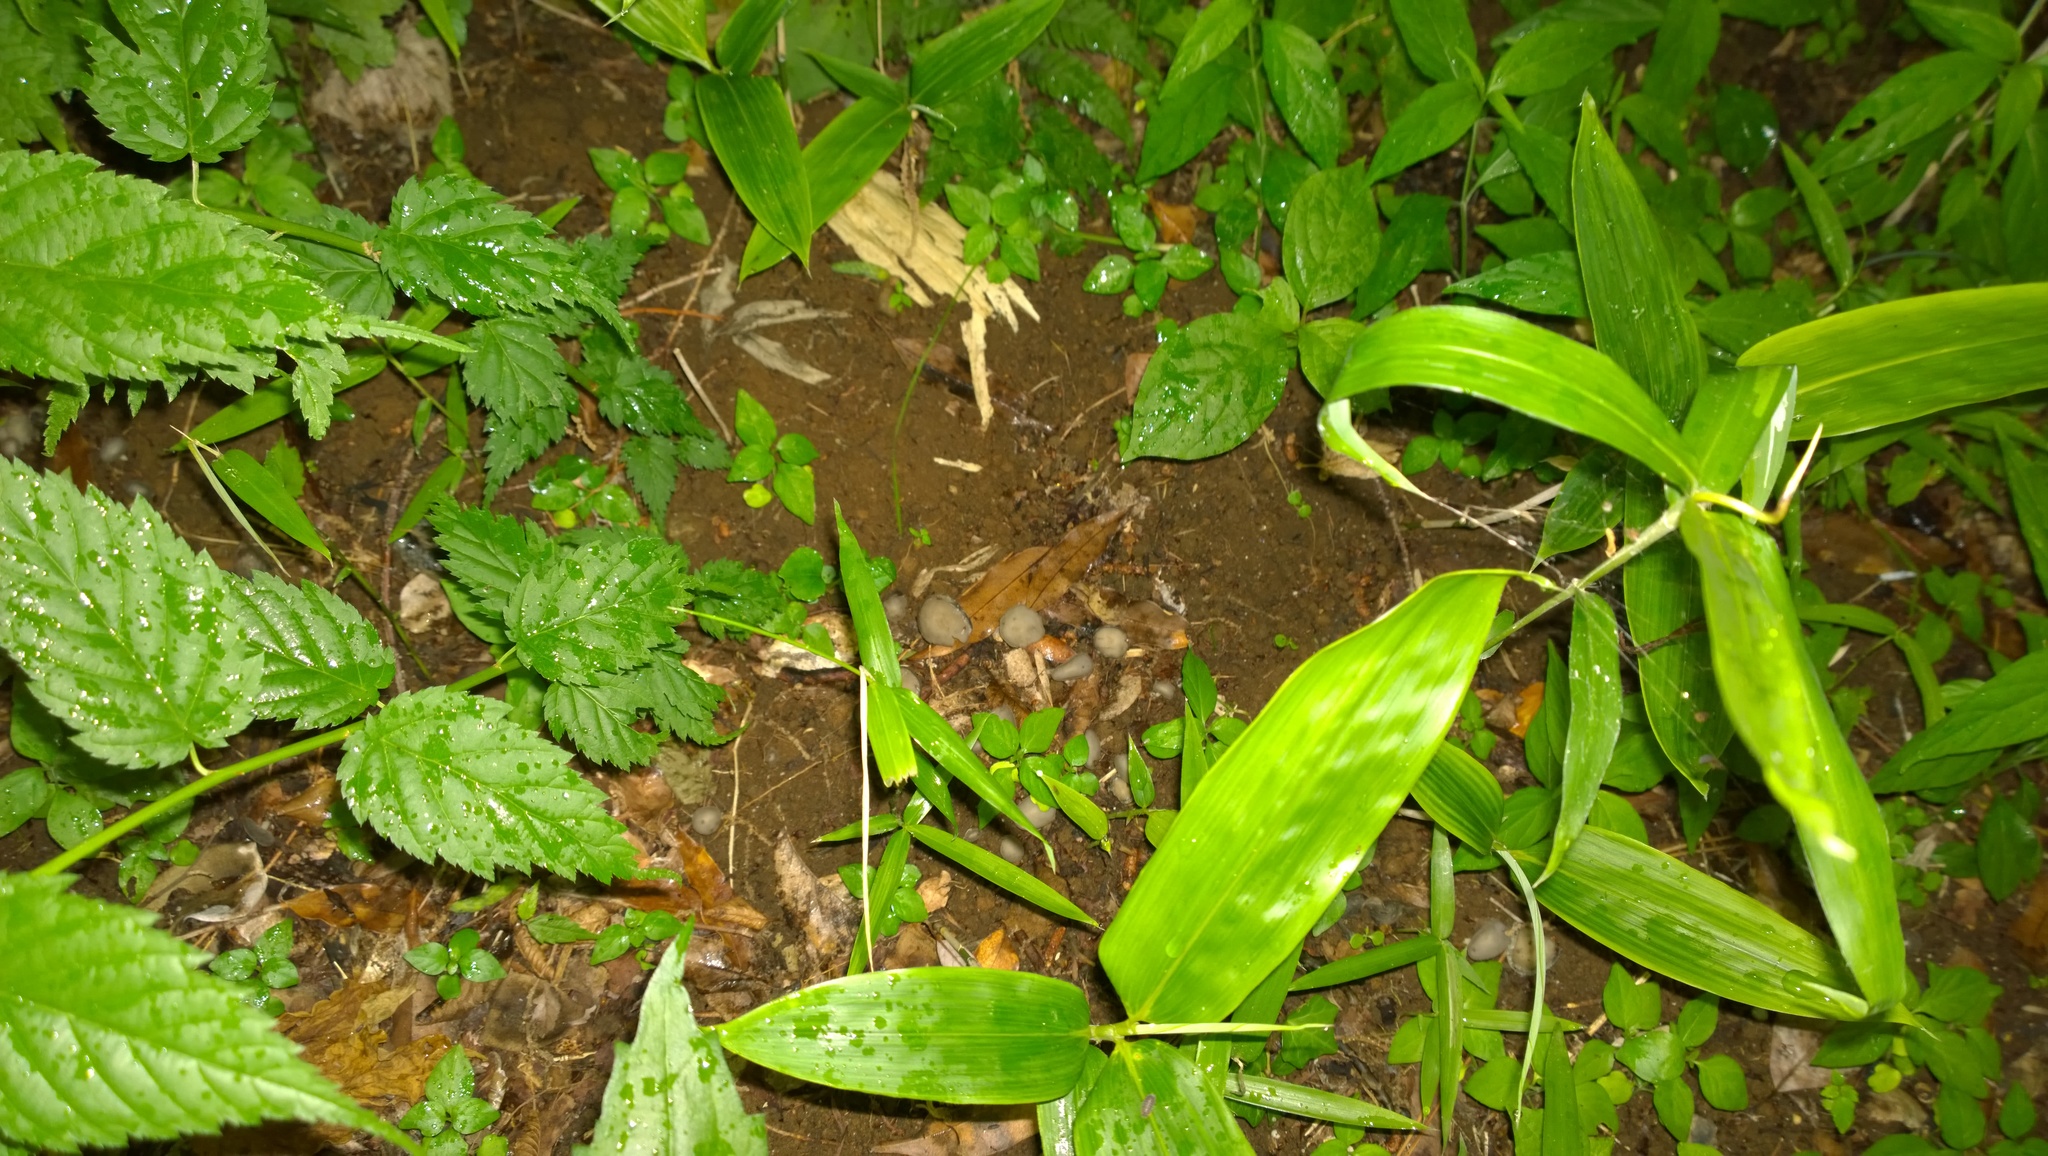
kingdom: Fungi
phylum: Ascomycota
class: Pezizomycetes
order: Pezizales
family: Helvellaceae
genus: Helvella
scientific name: Helvella macropus
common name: Felt saddle
